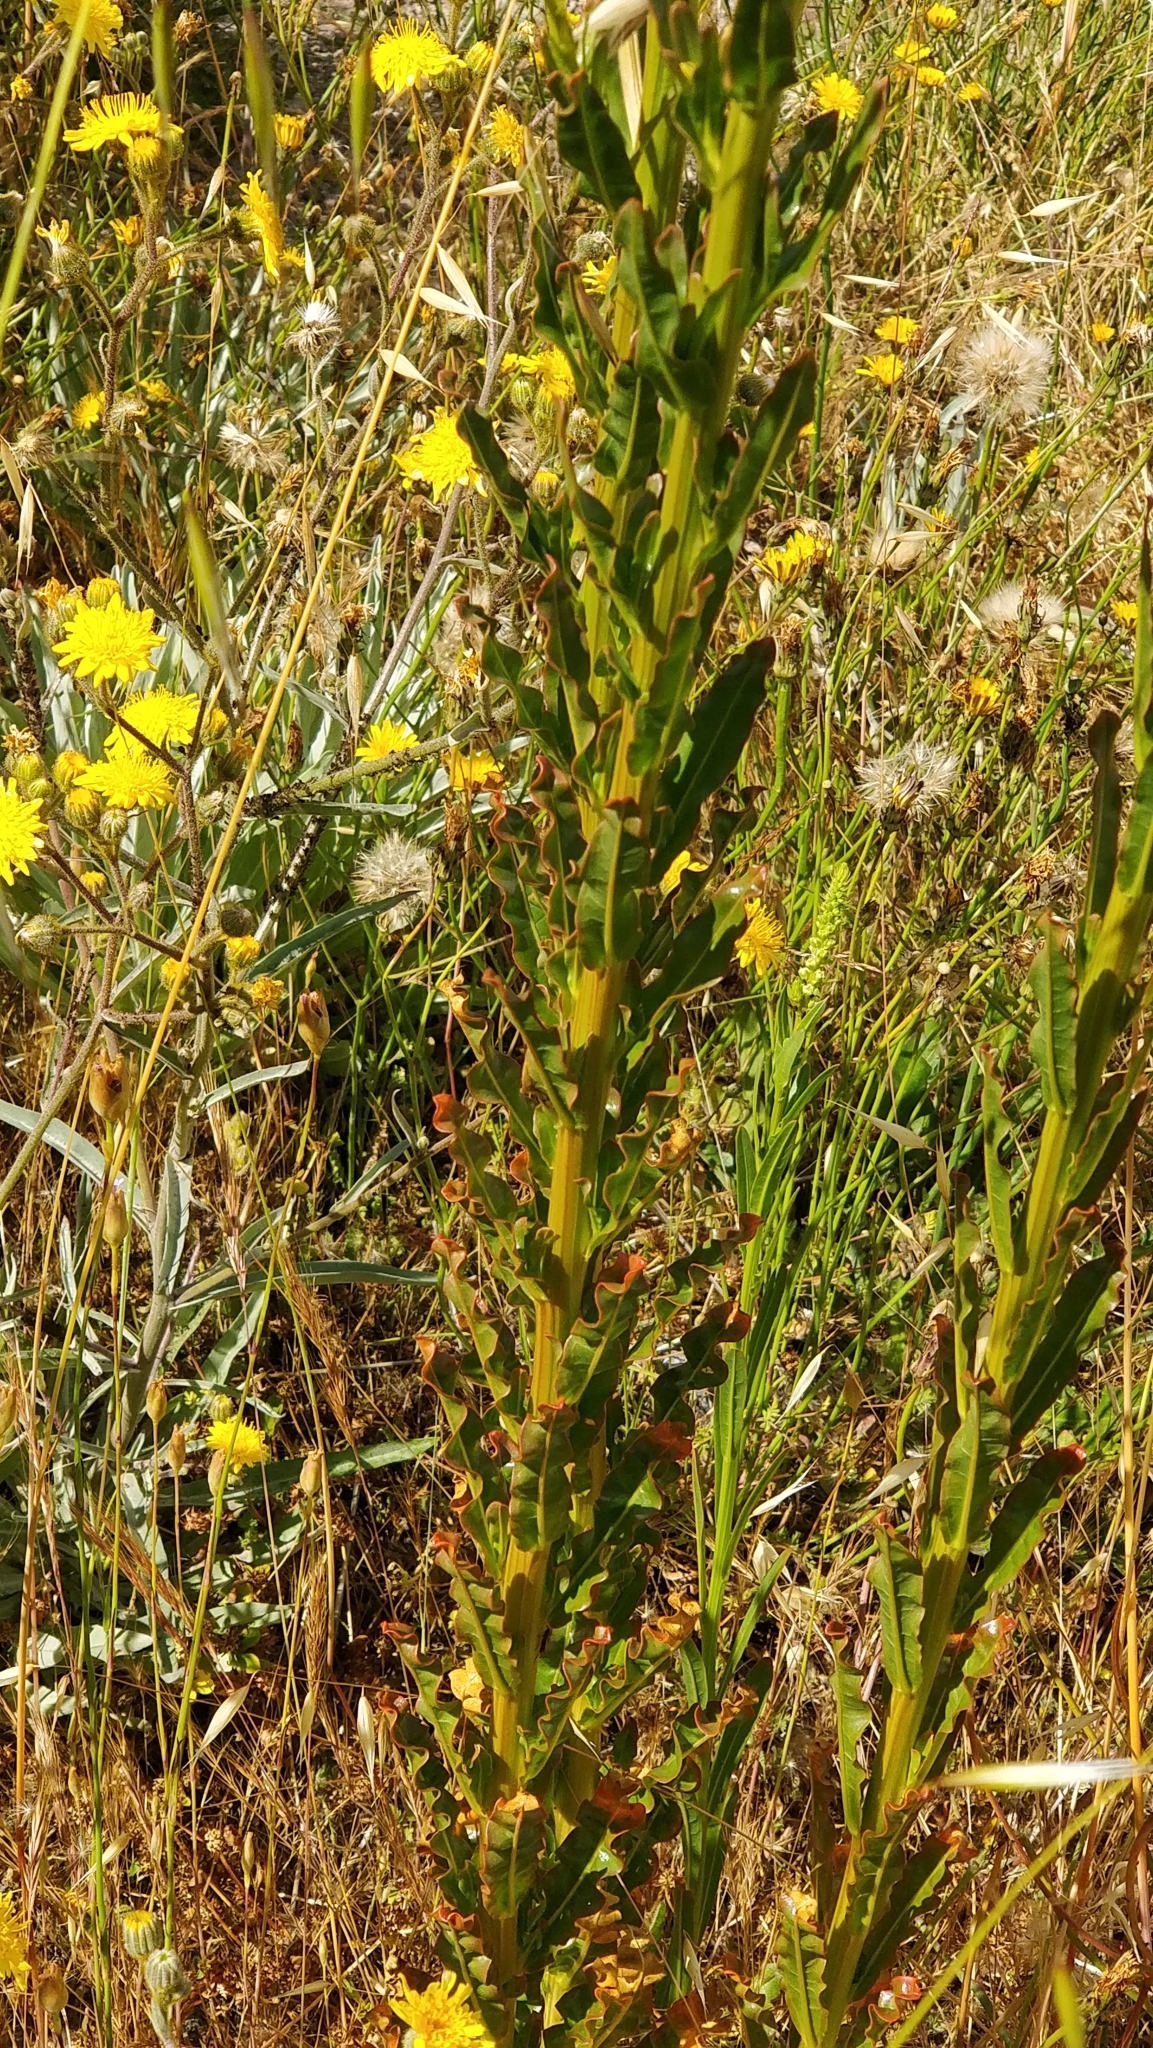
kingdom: Plantae
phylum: Tracheophyta
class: Magnoliopsida
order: Brassicales
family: Resedaceae
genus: Reseda
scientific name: Reseda luteola
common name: Weld
